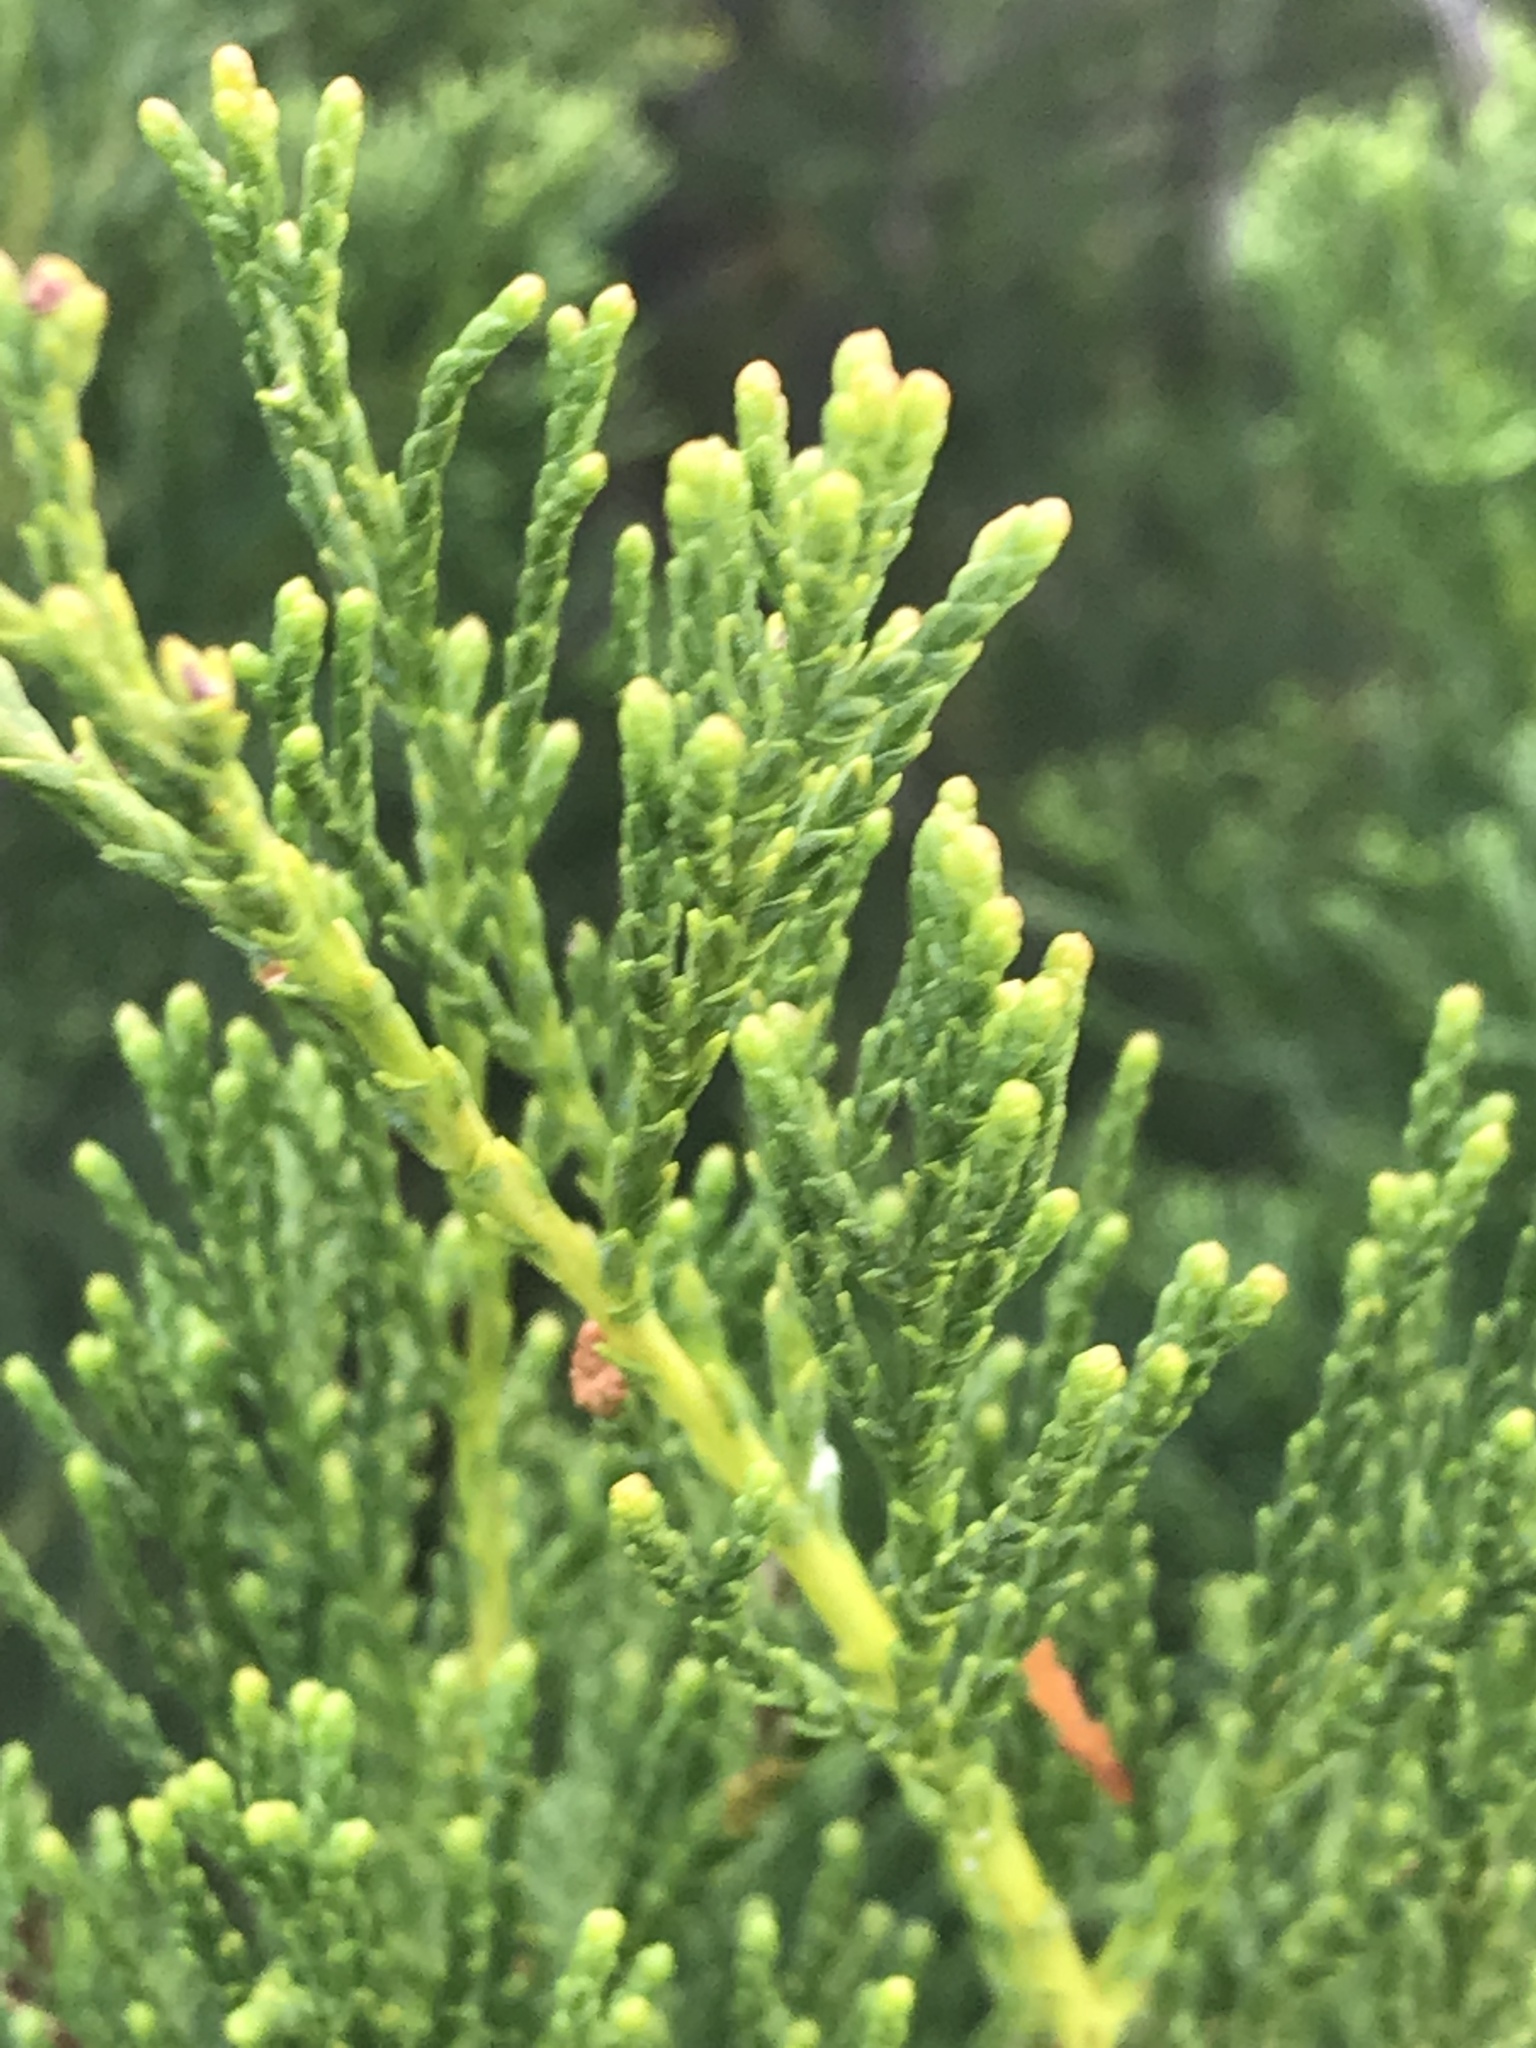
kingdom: Plantae
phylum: Tracheophyta
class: Pinopsida
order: Pinales
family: Cupressaceae
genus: Widdringtonia
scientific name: Widdringtonia nodiflora
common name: Cape cypress
